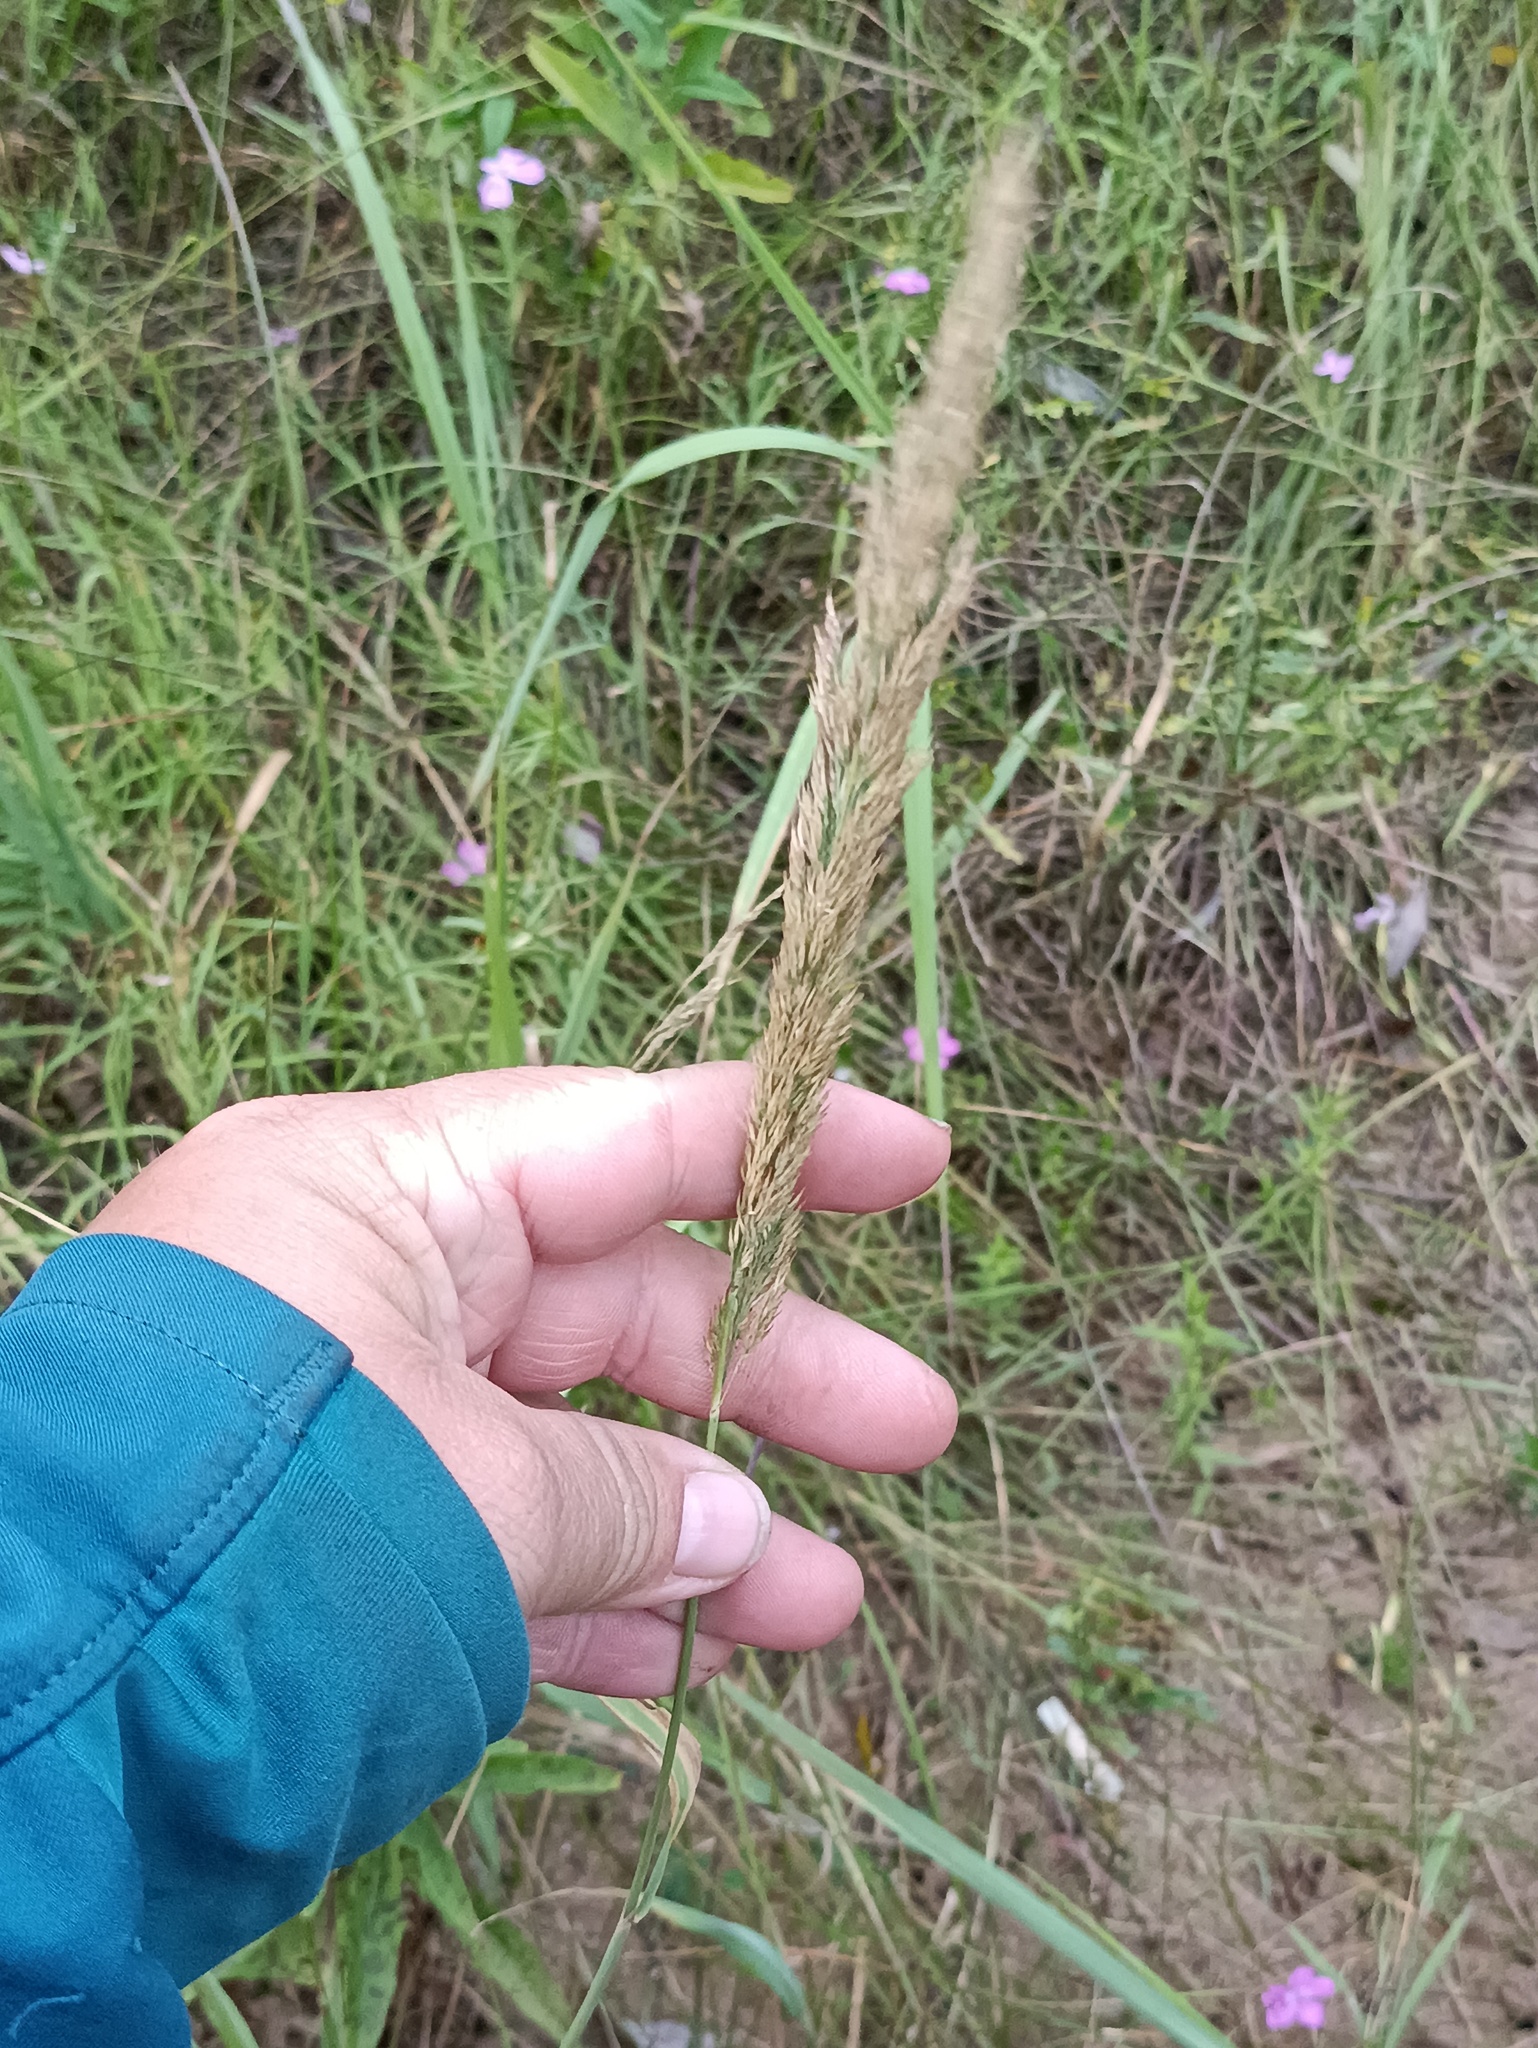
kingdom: Plantae
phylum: Tracheophyta
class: Liliopsida
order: Poales
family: Poaceae
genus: Calamagrostis
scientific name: Calamagrostis epigejos
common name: Wood small-reed
